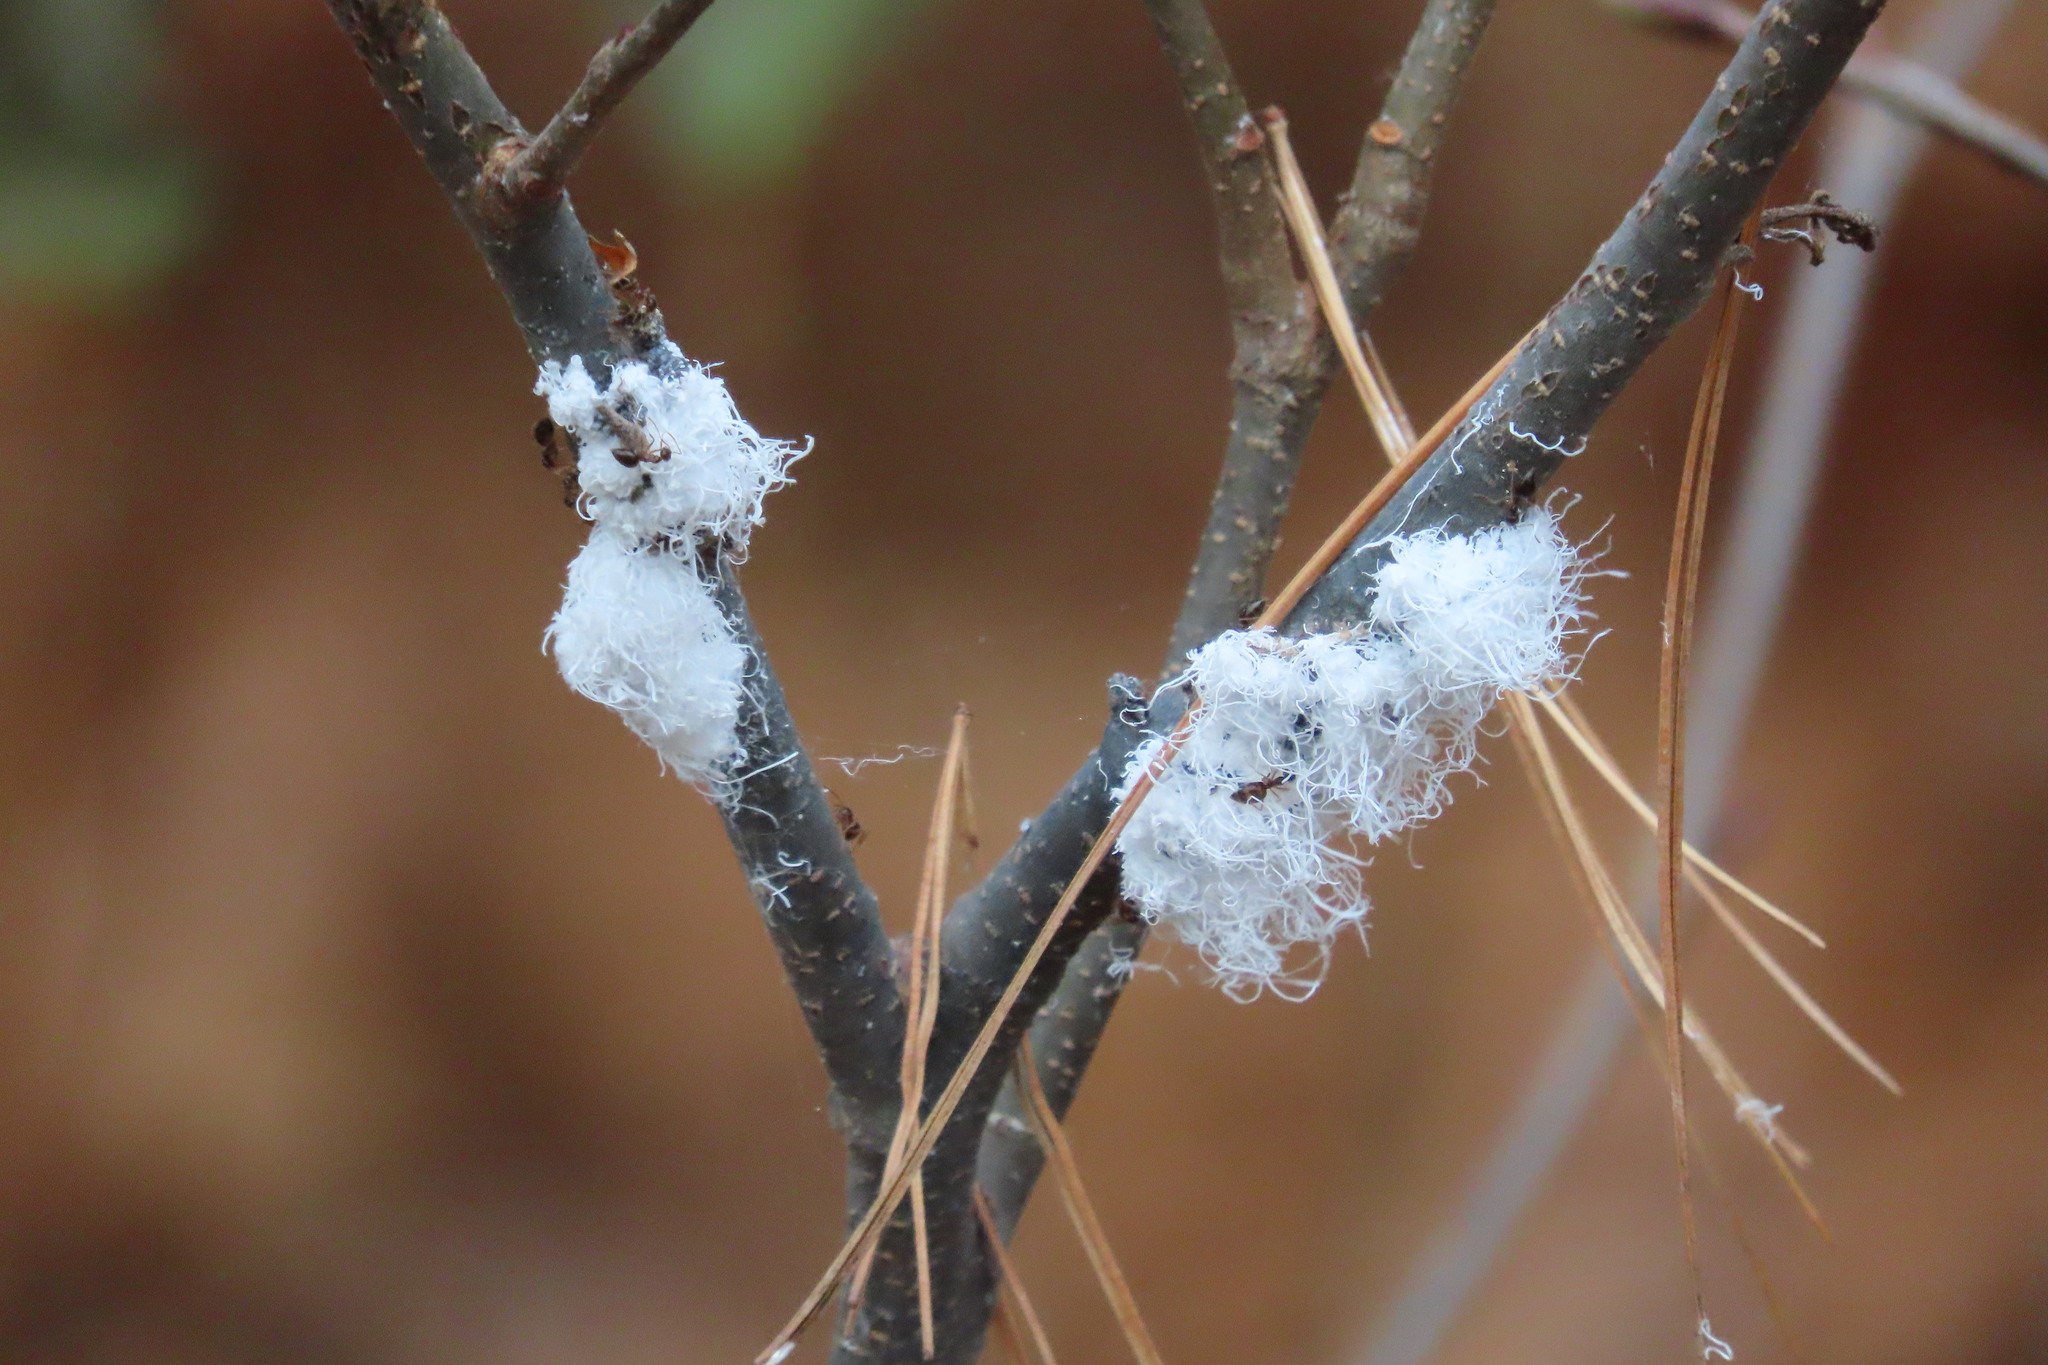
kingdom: Animalia
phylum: Arthropoda
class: Insecta
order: Hemiptera
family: Aphididae
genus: Prociphilus
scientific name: Prociphilus tessellatus
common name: Woolly alder aphid
